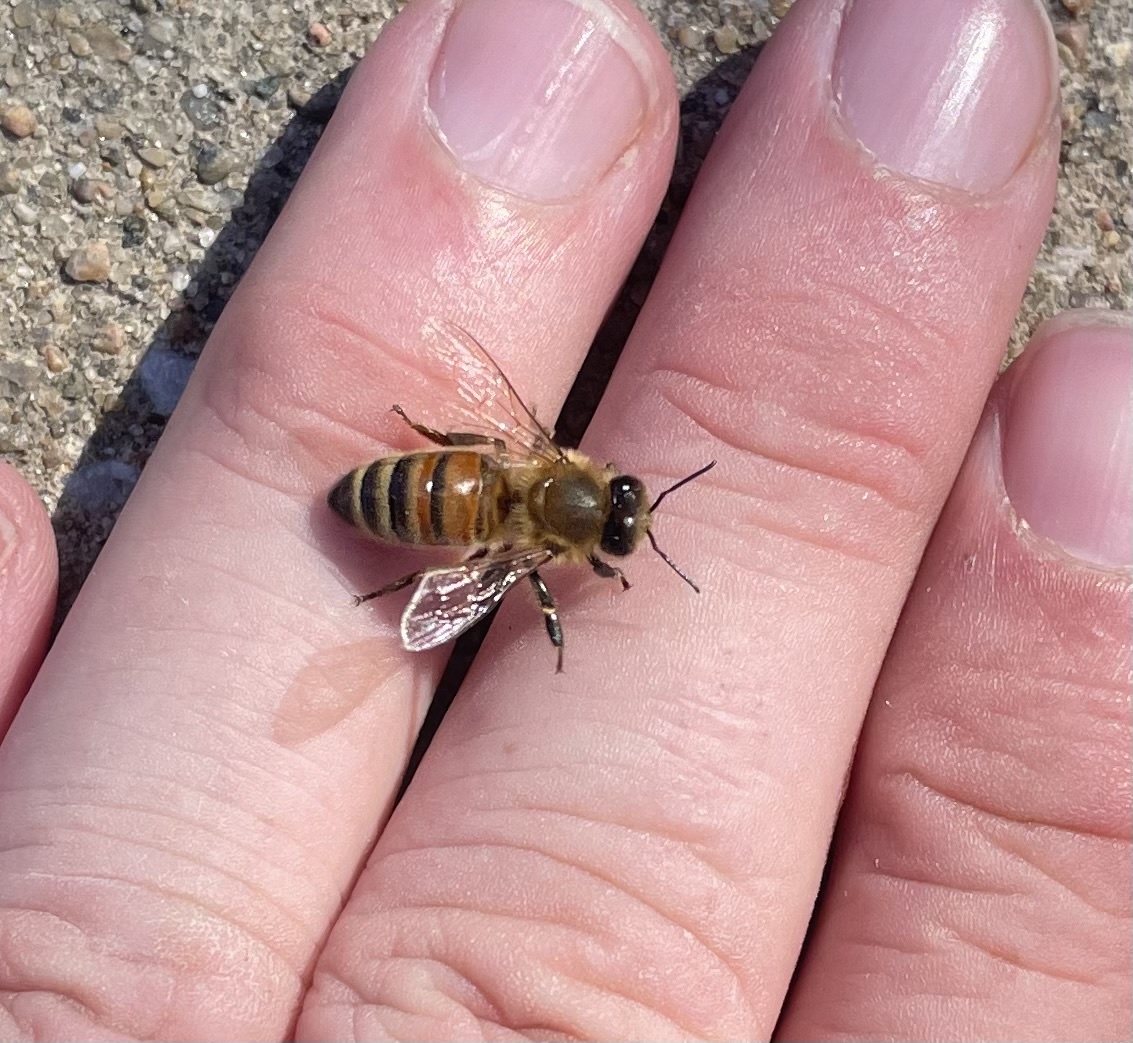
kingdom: Animalia
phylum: Arthropoda
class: Insecta
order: Hymenoptera
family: Apidae
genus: Apis
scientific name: Apis mellifera
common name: Honey bee
